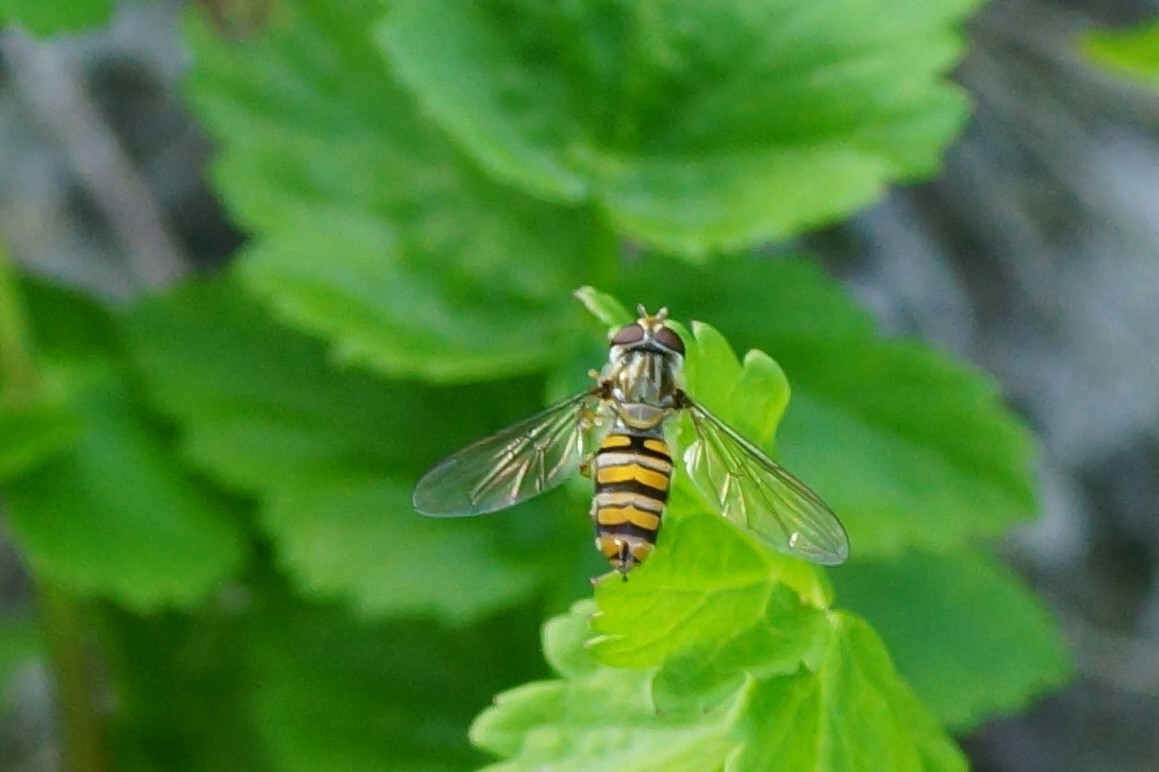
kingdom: Animalia
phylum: Arthropoda
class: Insecta
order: Diptera
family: Syrphidae
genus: Episyrphus
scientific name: Episyrphus balteatus
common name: Marmalade hoverfly
